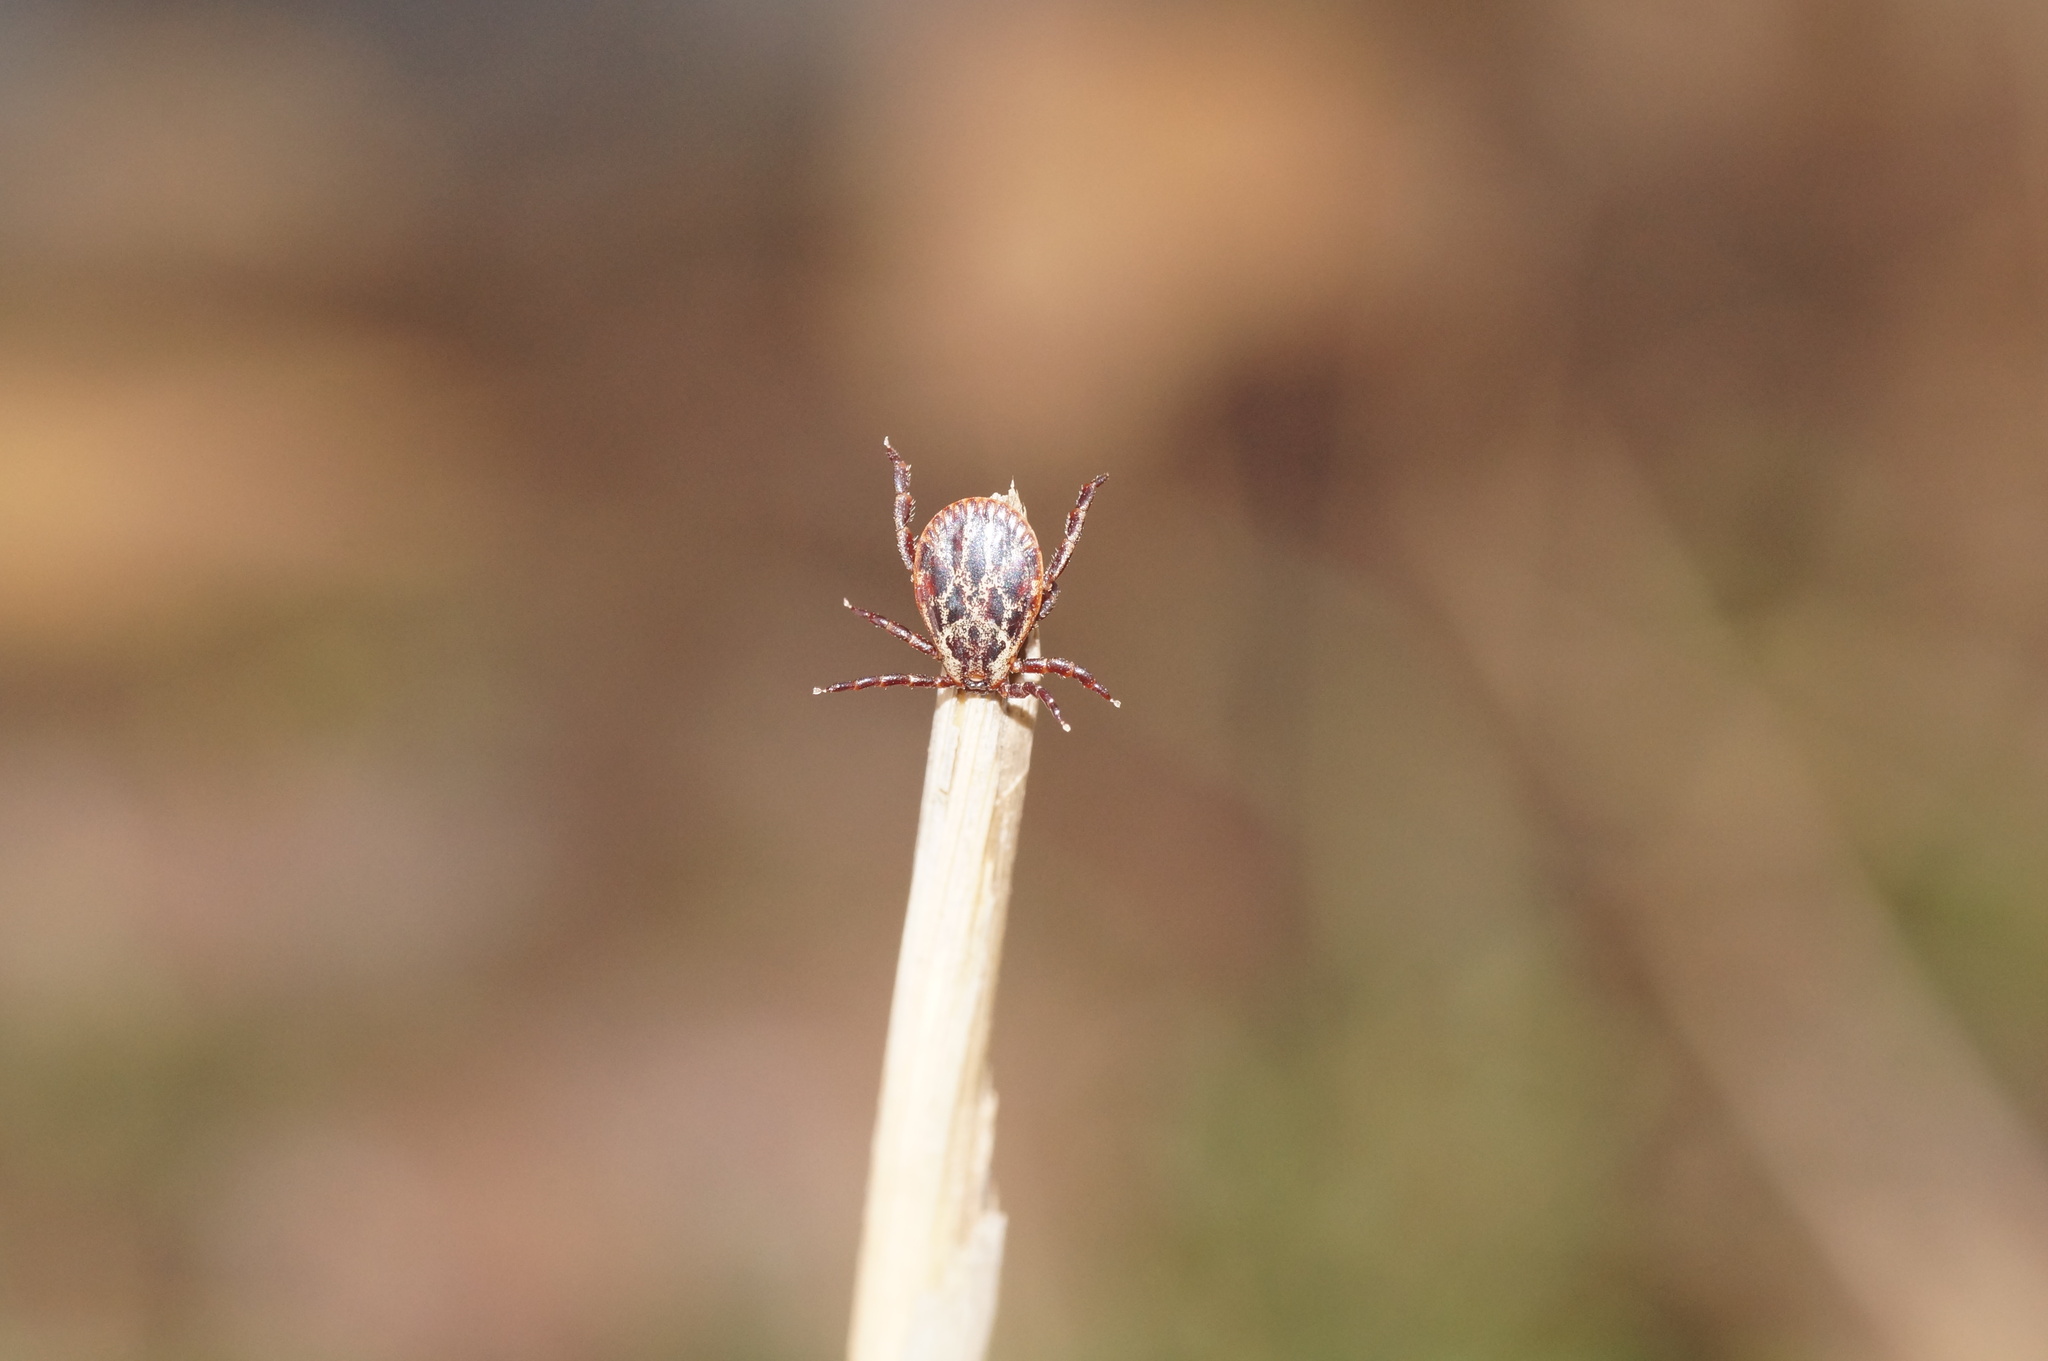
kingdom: Animalia
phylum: Arthropoda
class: Arachnida
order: Ixodida
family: Ixodidae
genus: Dermacentor
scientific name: Dermacentor reticulatus
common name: Ornate cow tick
